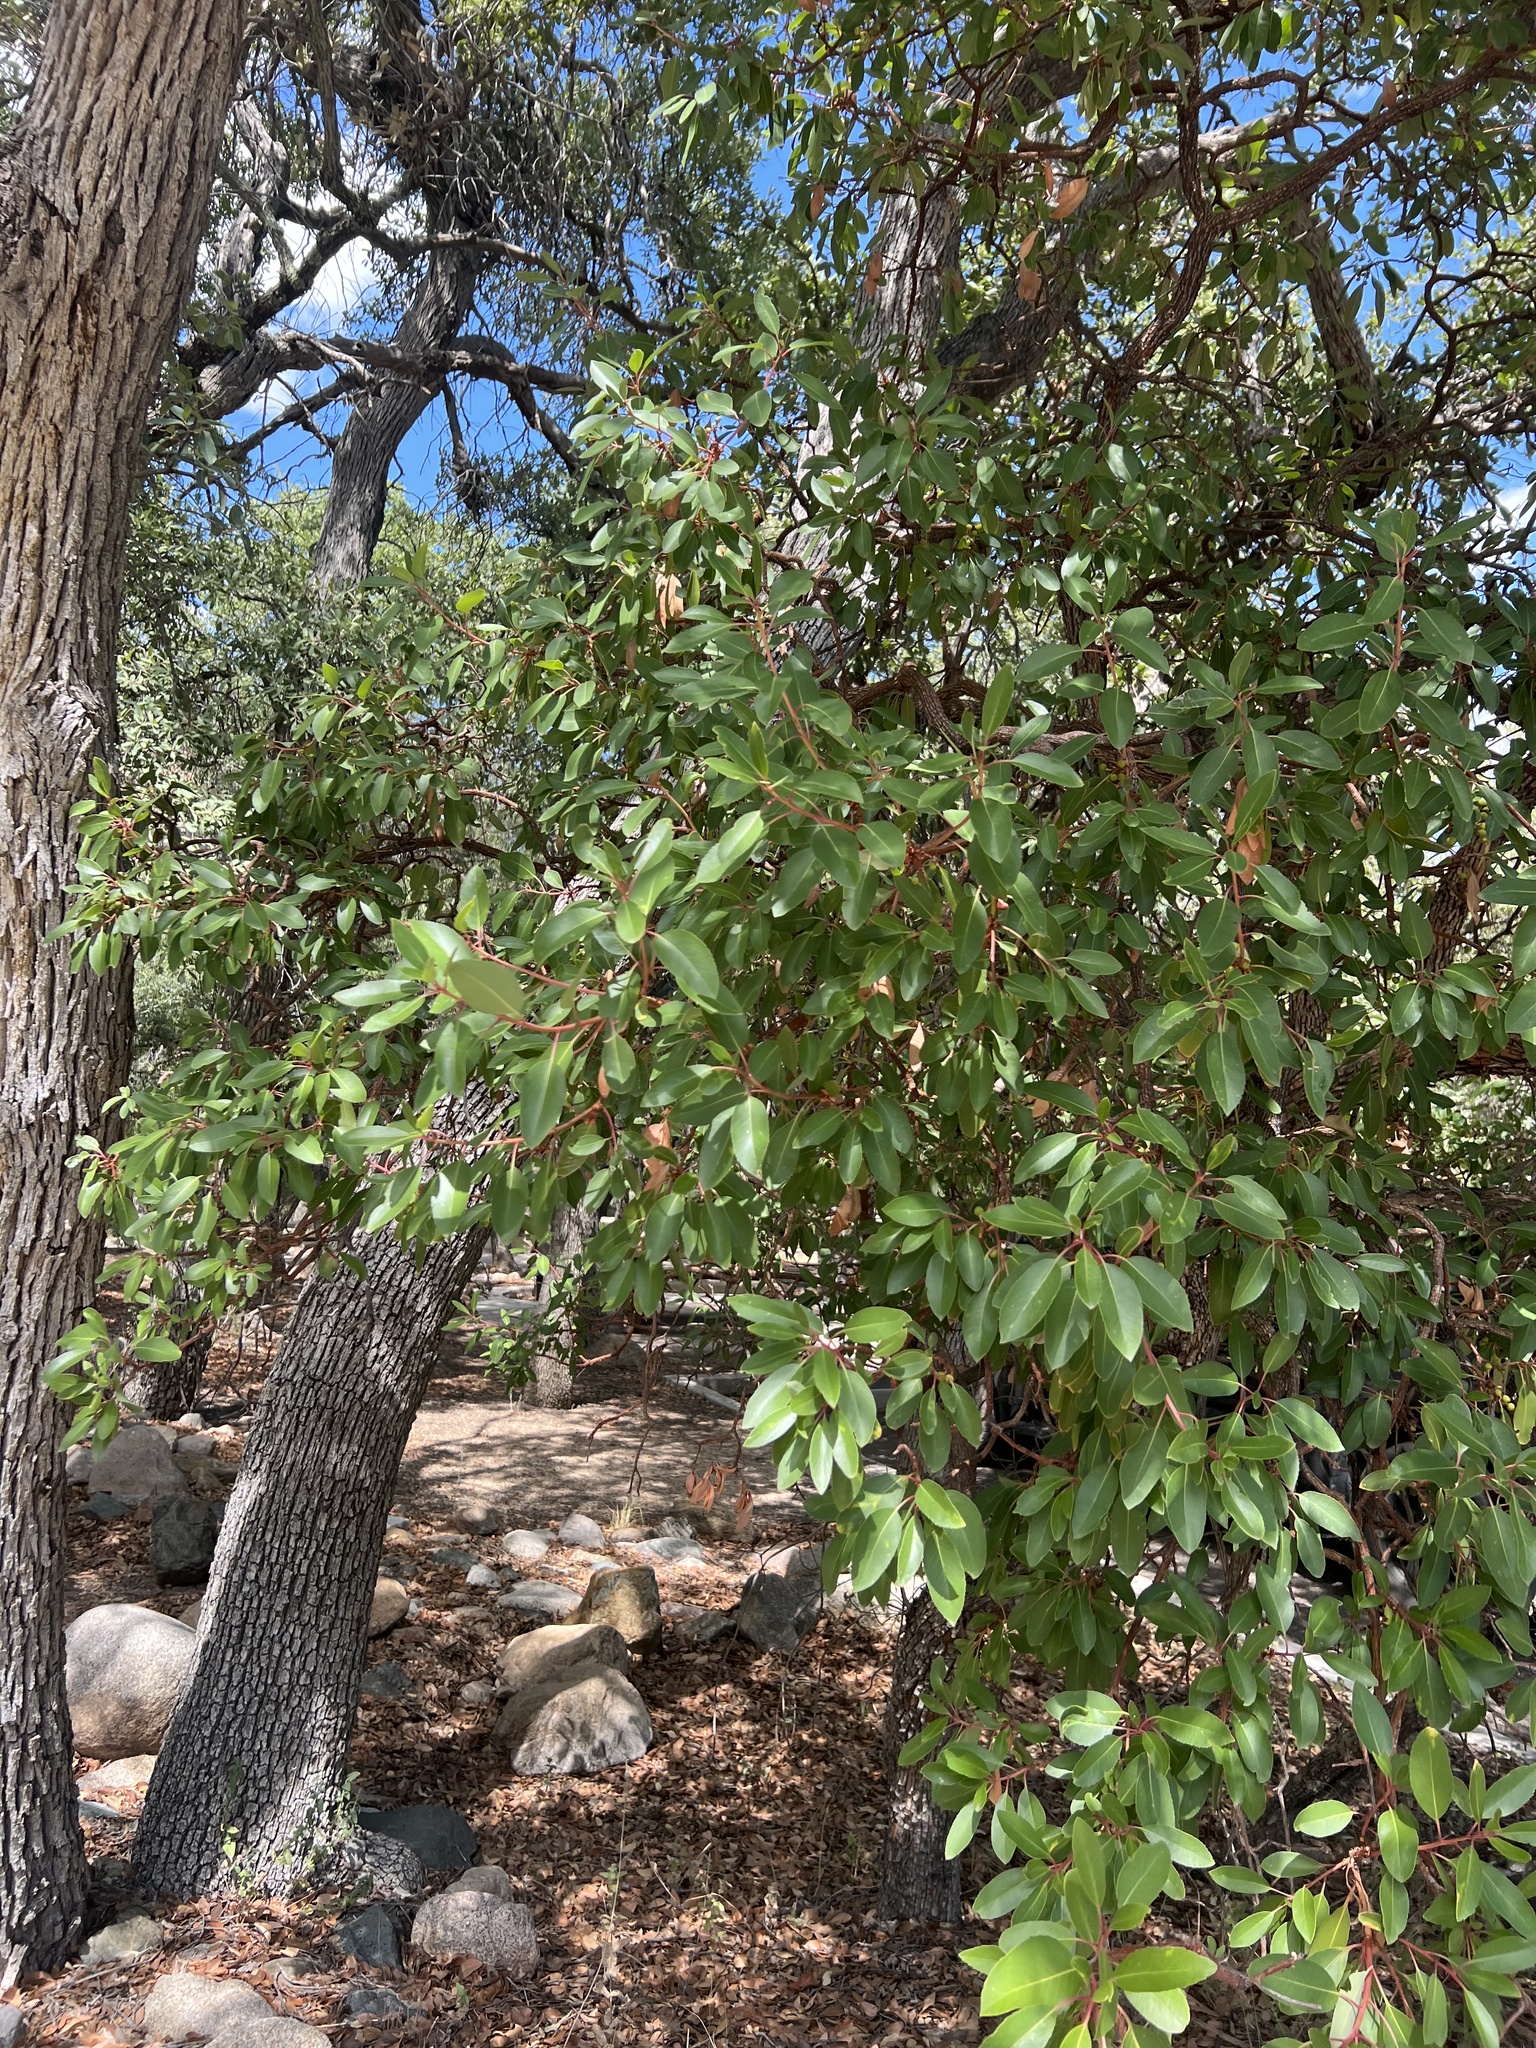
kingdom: Plantae
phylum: Tracheophyta
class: Magnoliopsida
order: Ericales
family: Ericaceae
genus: Arbutus
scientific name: Arbutus arizonica
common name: Arizona madrone
